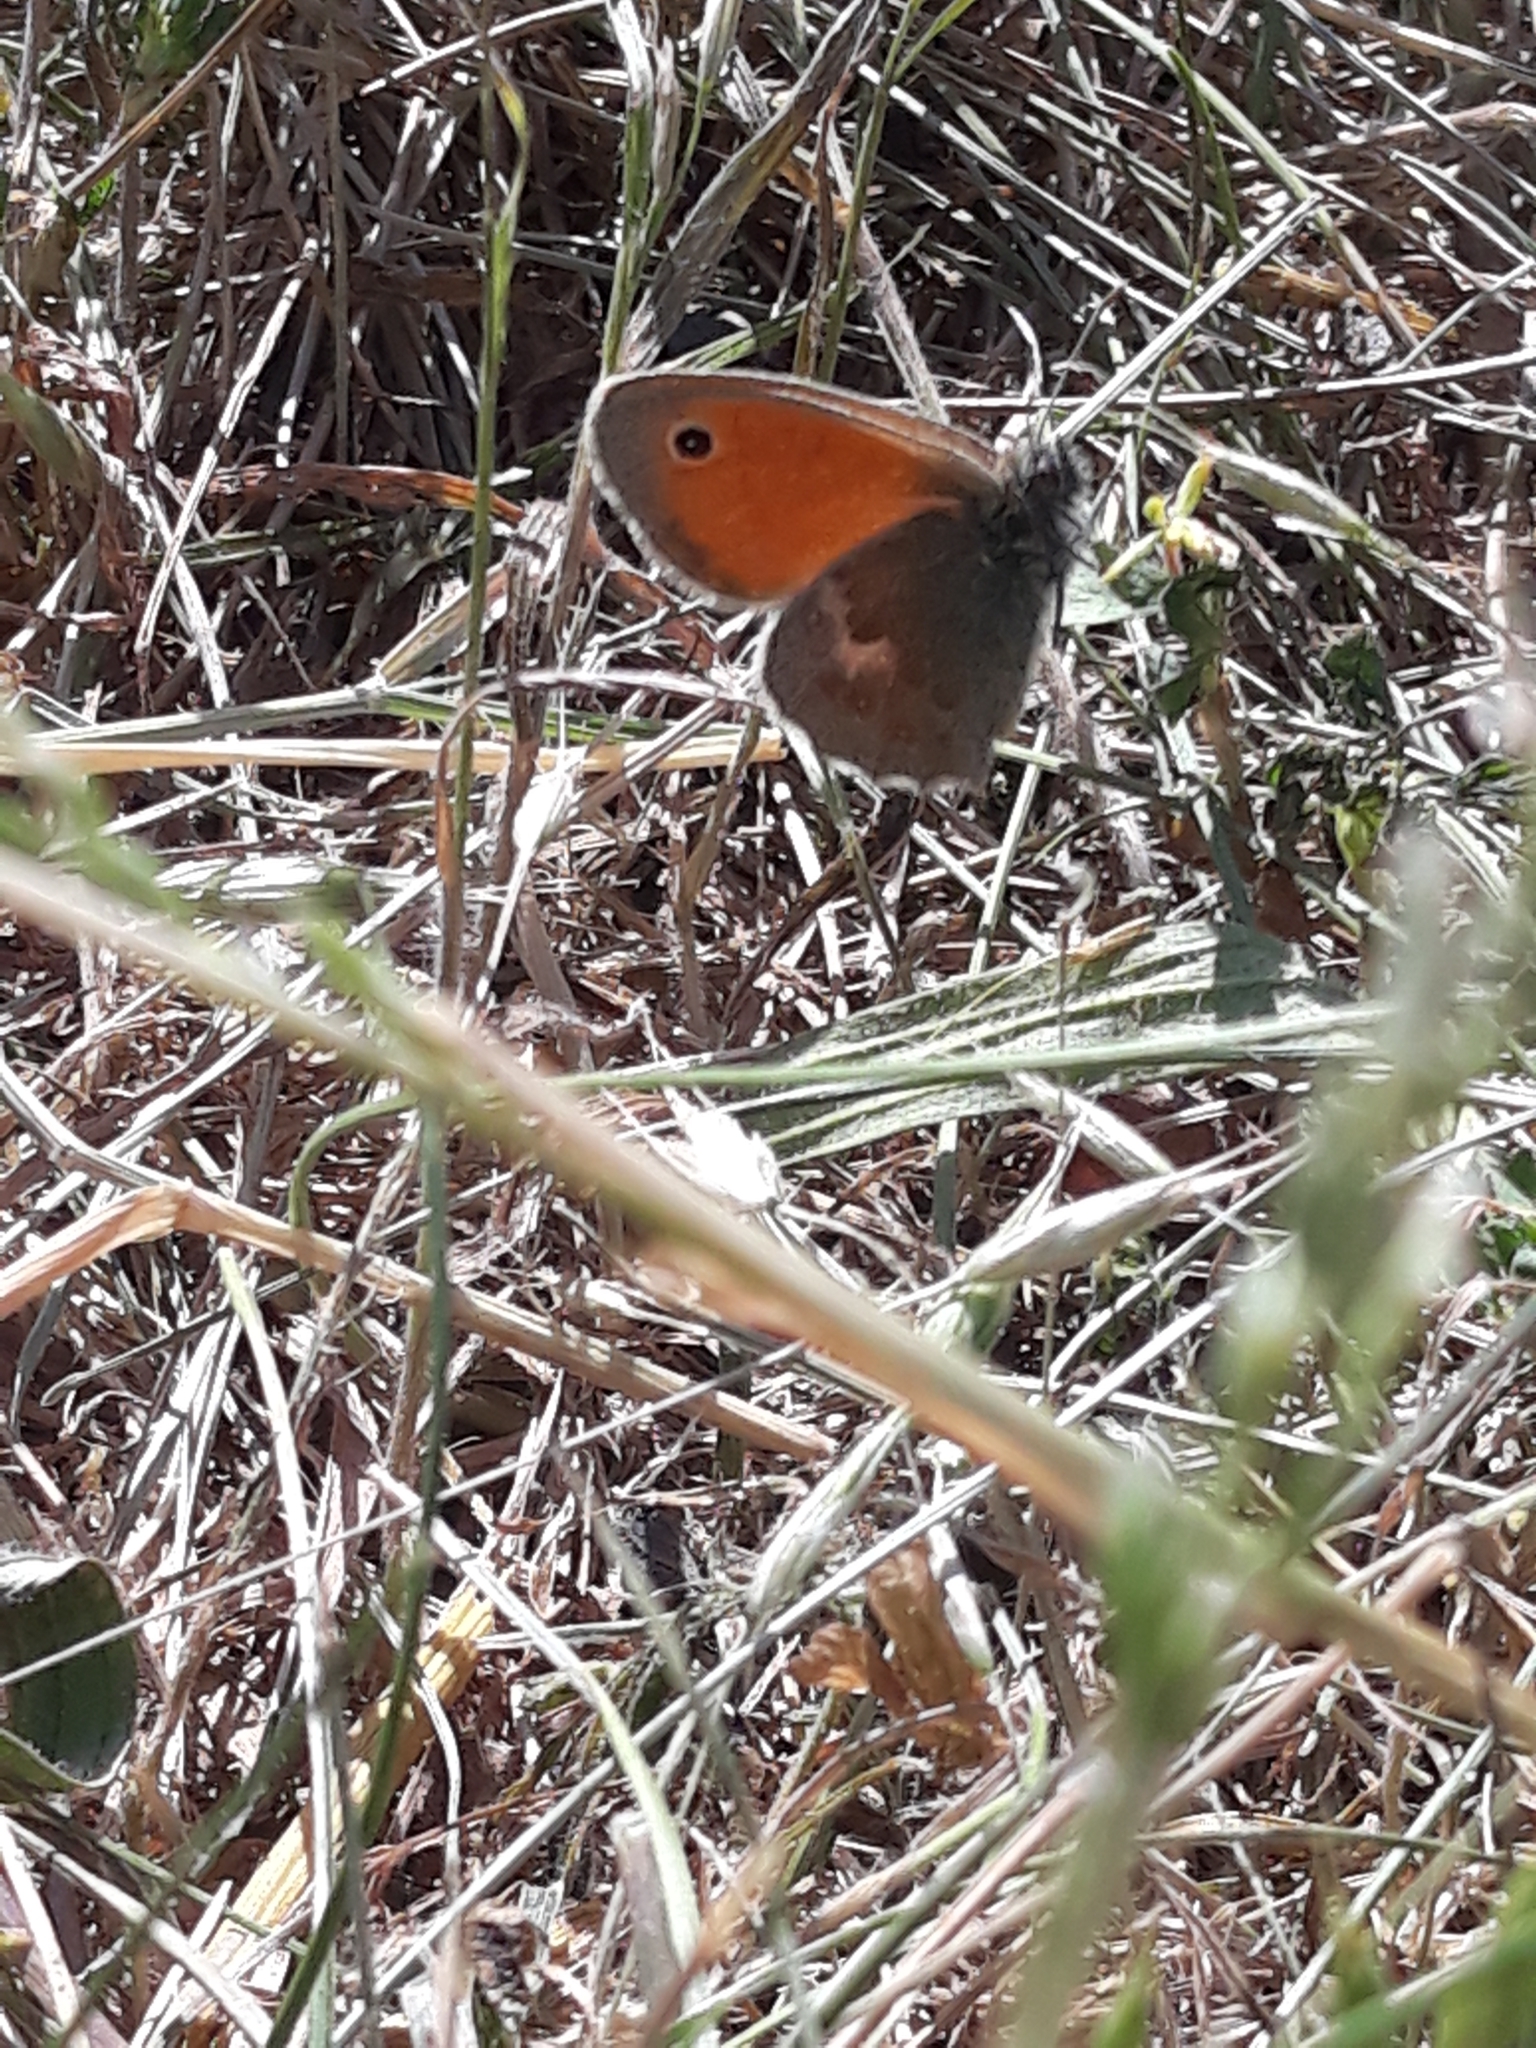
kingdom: Animalia
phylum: Arthropoda
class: Insecta
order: Lepidoptera
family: Nymphalidae
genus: Coenonympha
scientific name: Coenonympha pamphilus
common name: Small heath
